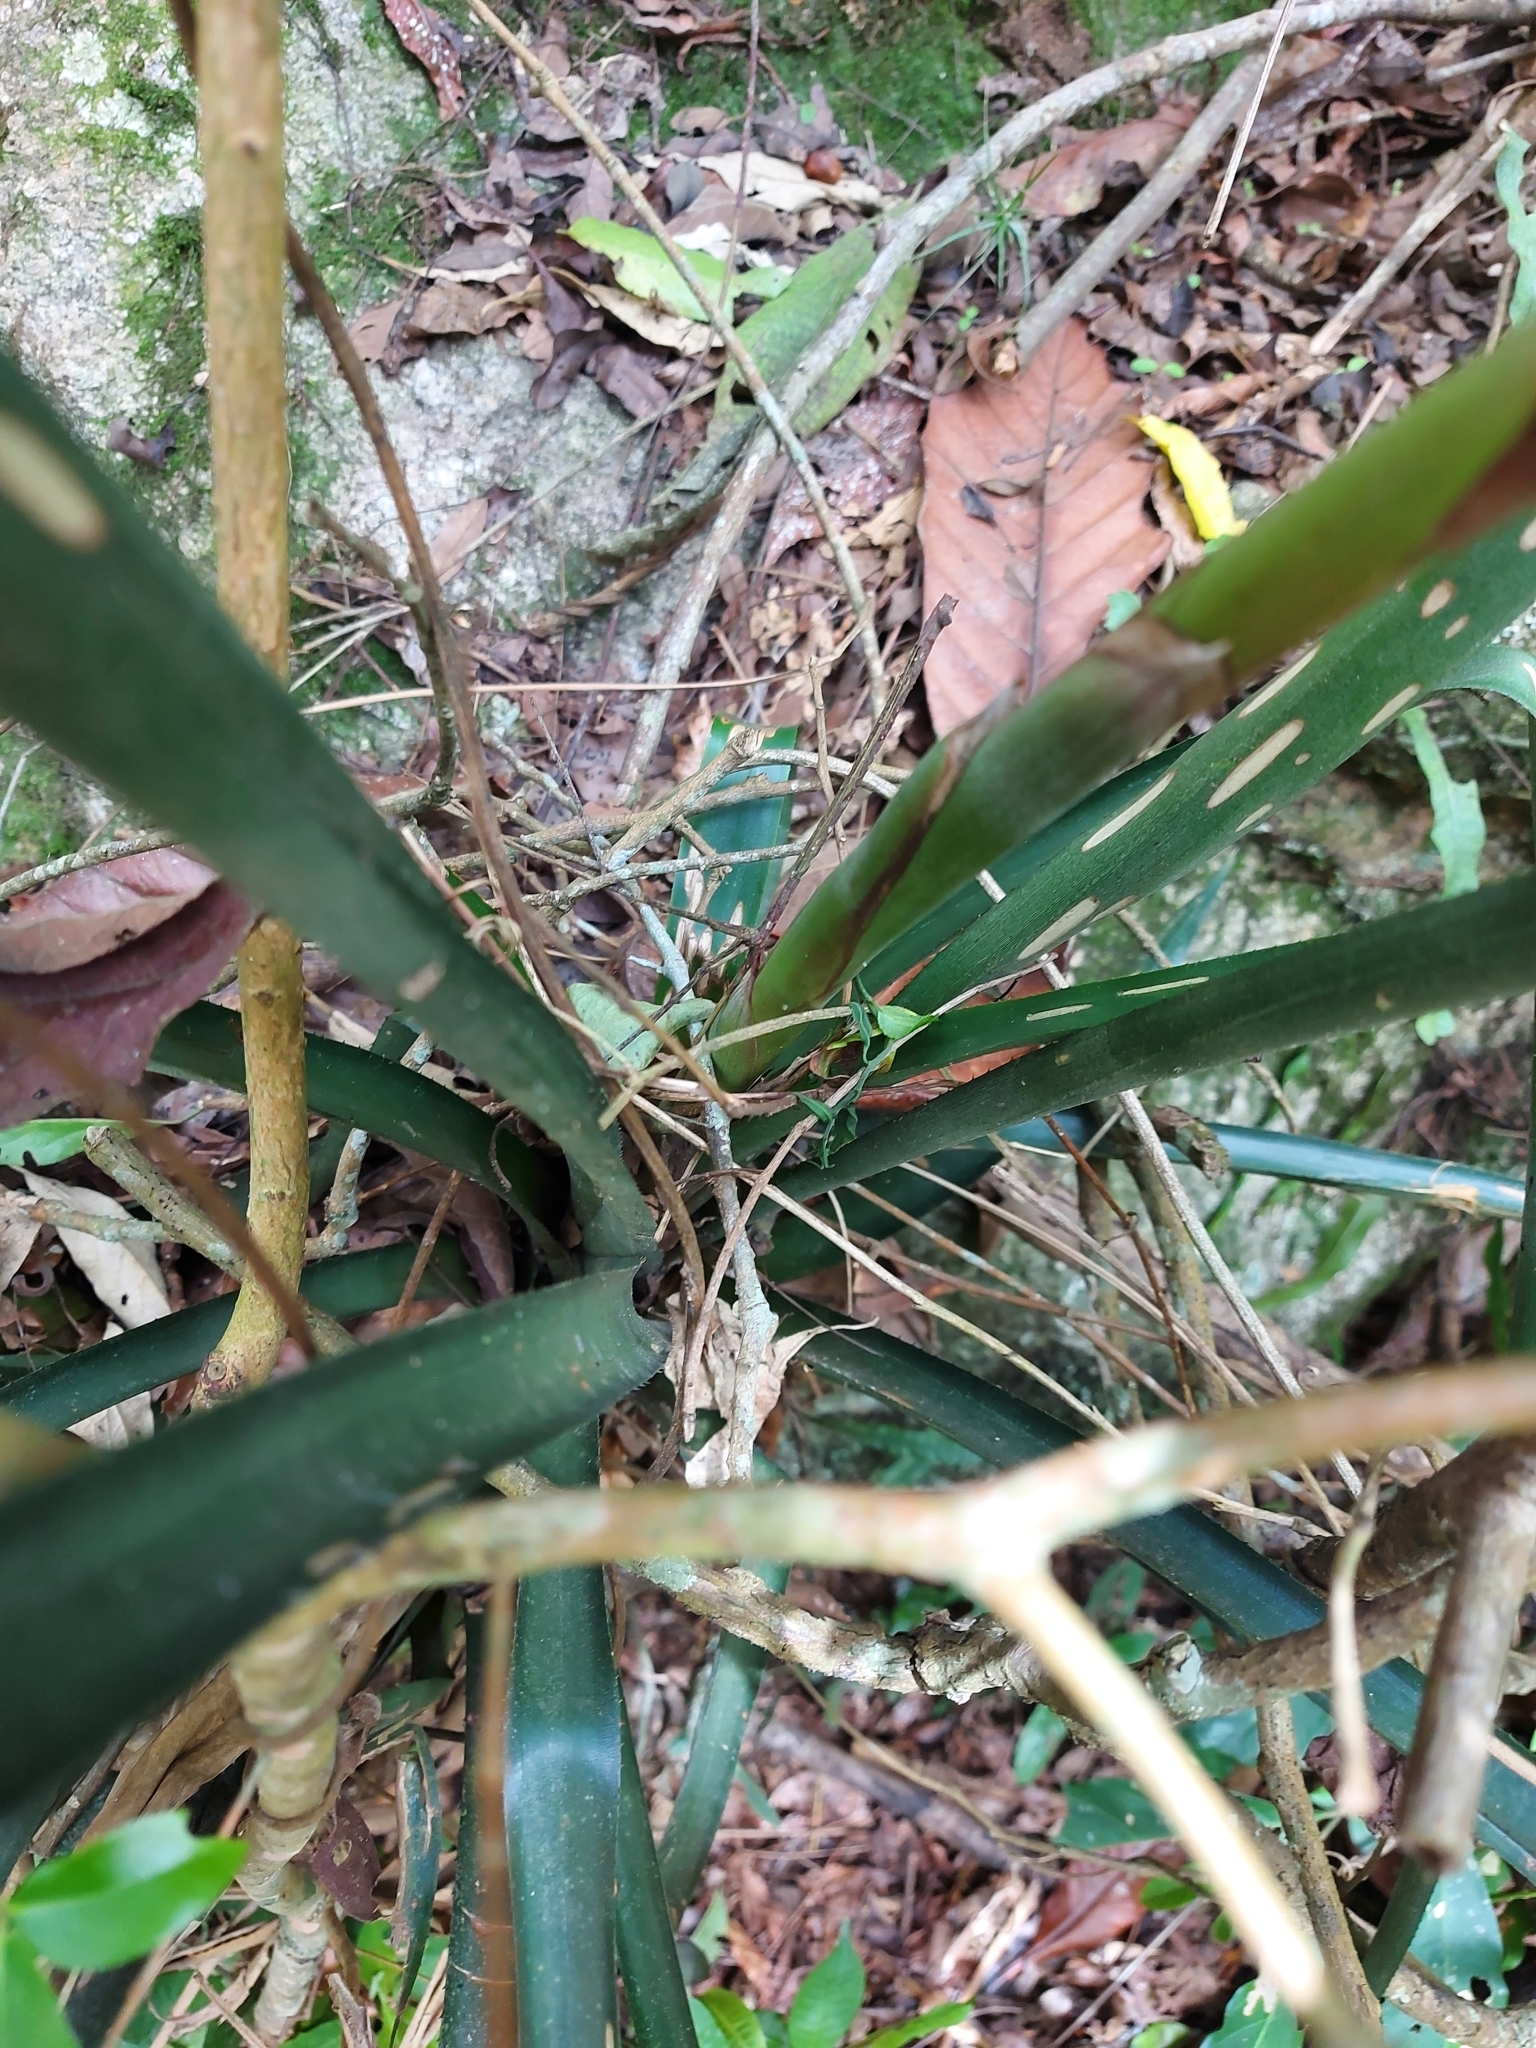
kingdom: Plantae
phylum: Tracheophyta
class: Liliopsida
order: Poales
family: Bromeliaceae
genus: Aechmea
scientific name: Aechmea distichantha
